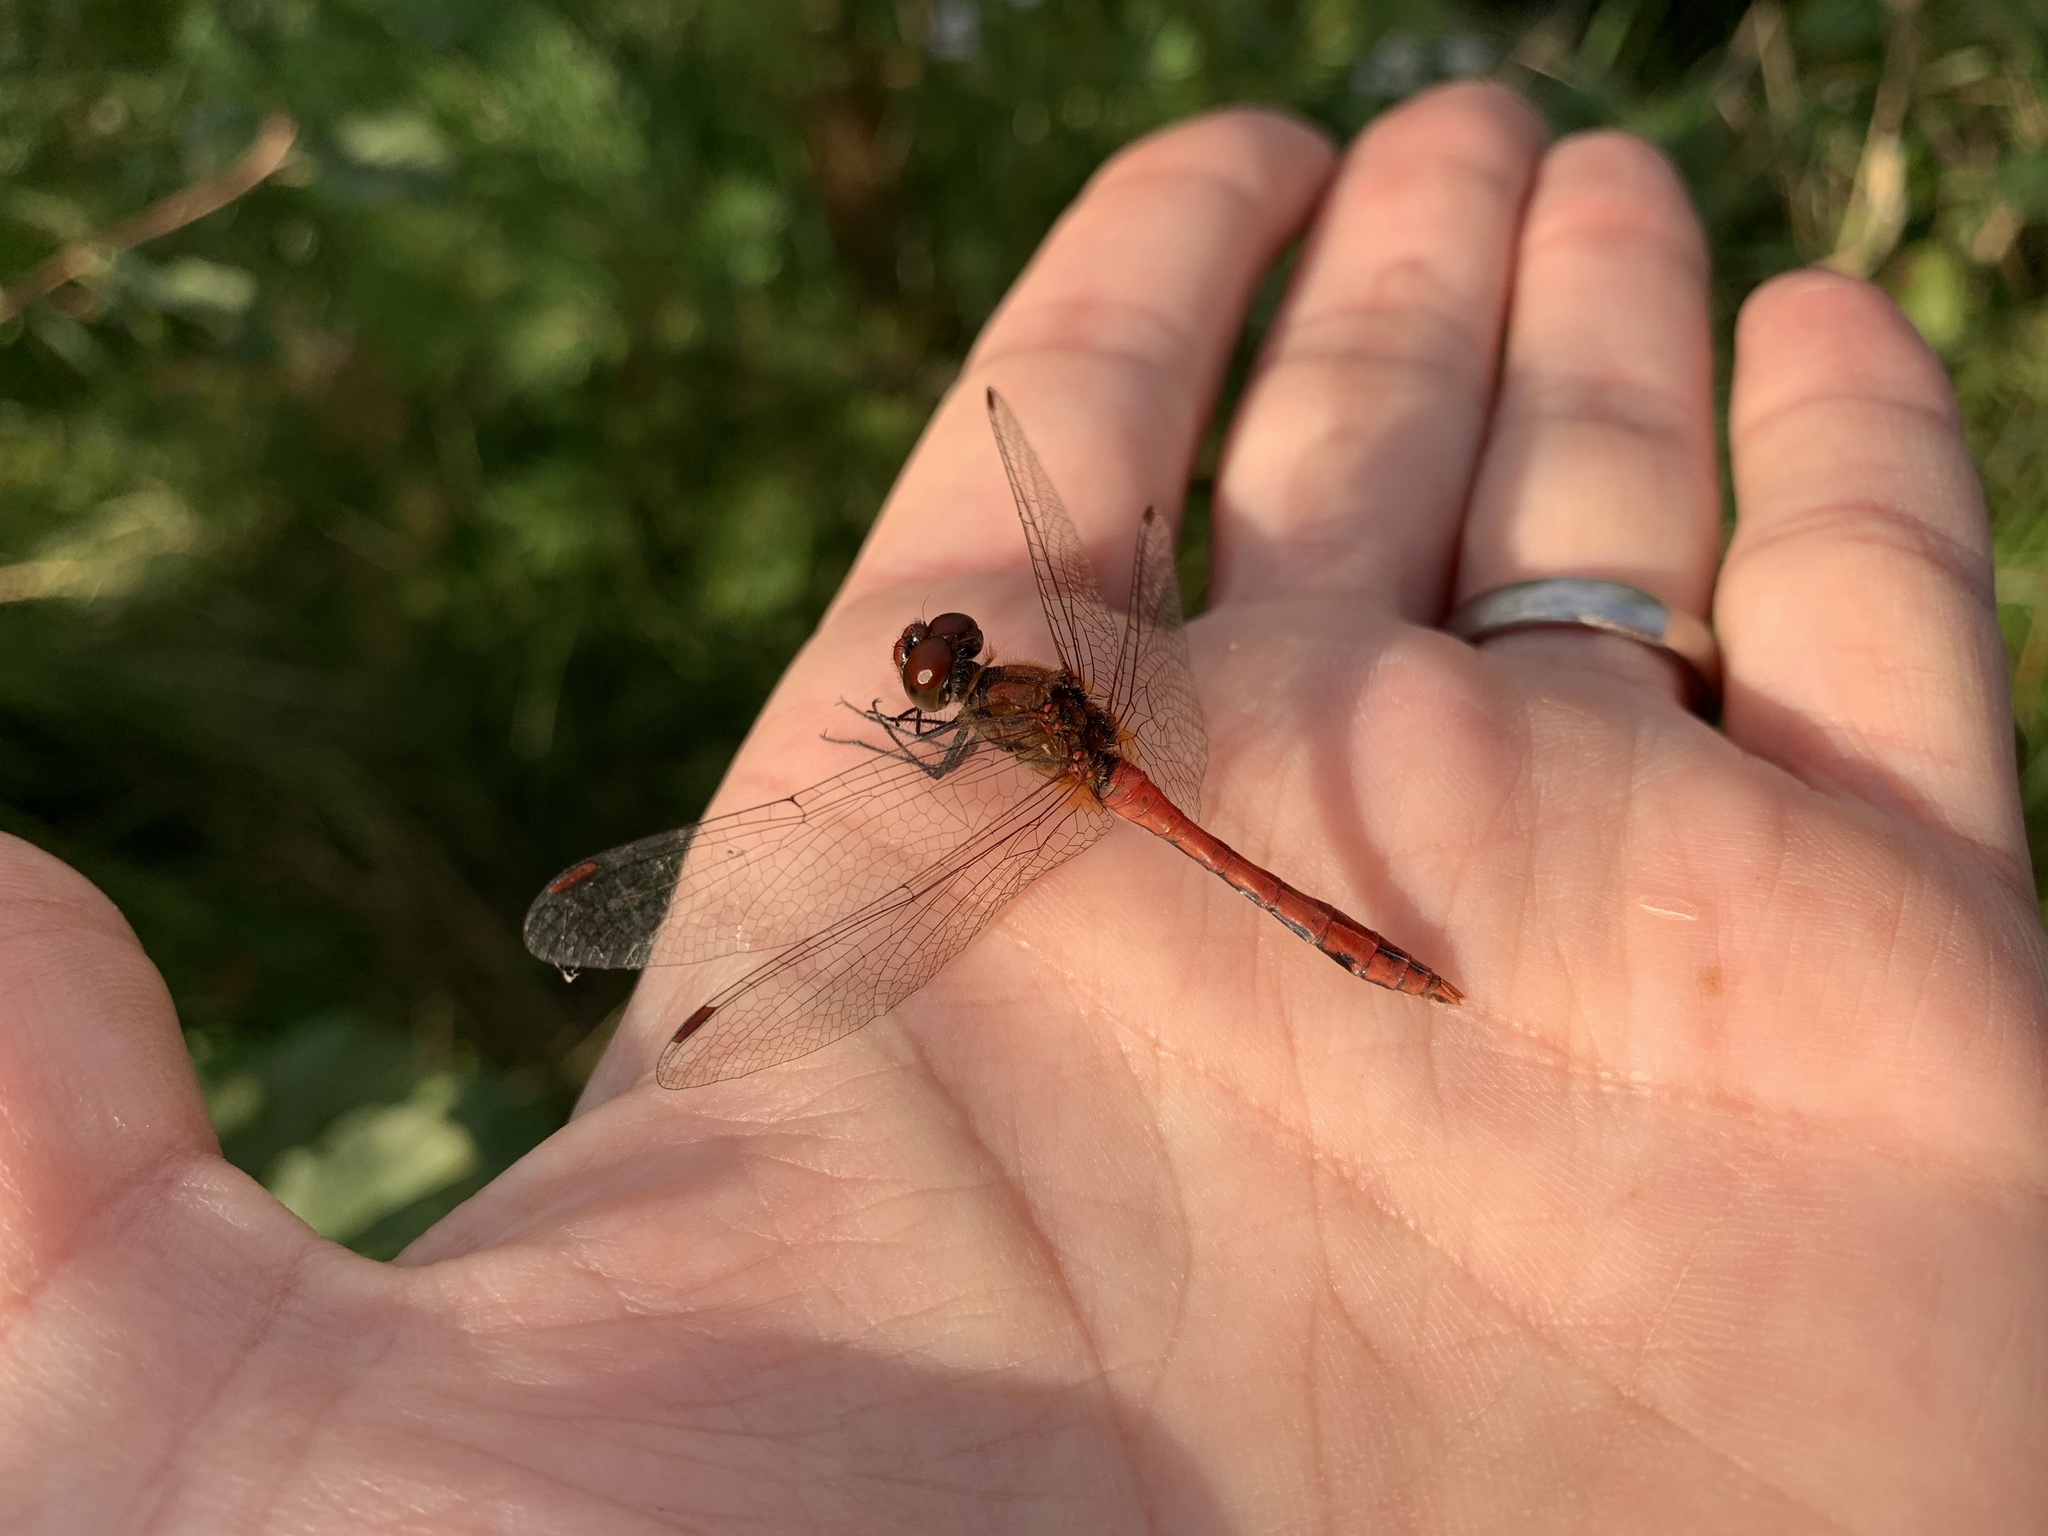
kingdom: Animalia
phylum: Arthropoda
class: Insecta
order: Odonata
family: Libellulidae
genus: Sympetrum
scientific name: Sympetrum sanguineum
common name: Ruddy darter
